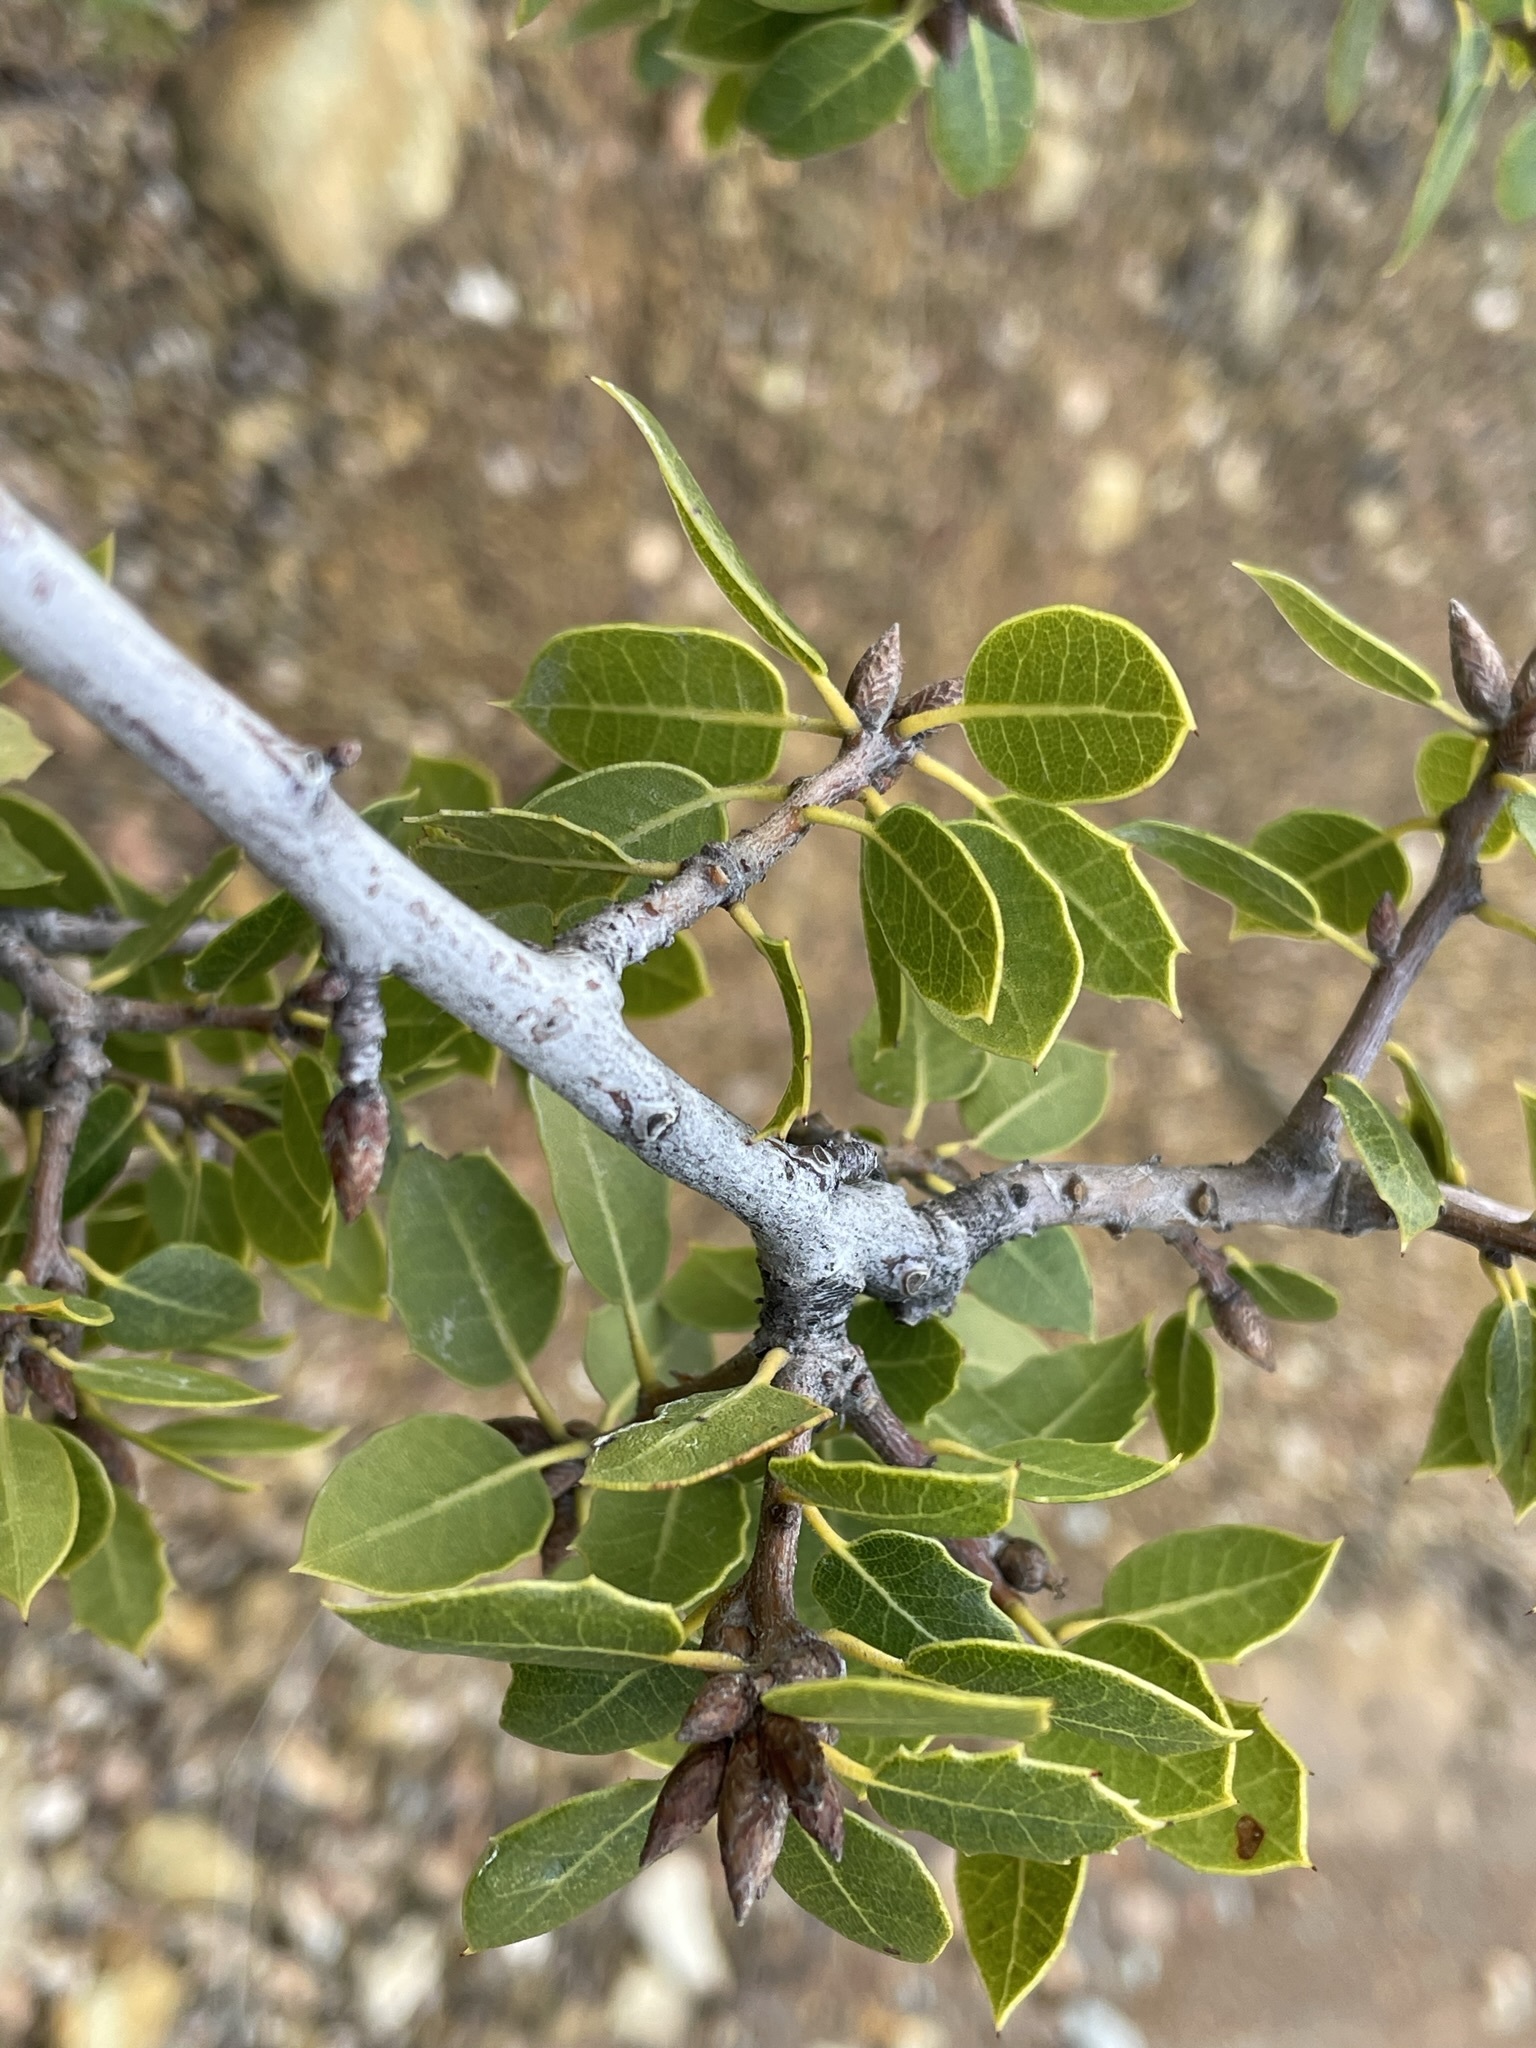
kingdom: Plantae
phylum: Tracheophyta
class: Magnoliopsida
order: Fagales
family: Fagaceae
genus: Quercus
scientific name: Quercus wislizeni
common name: Interior live oak
